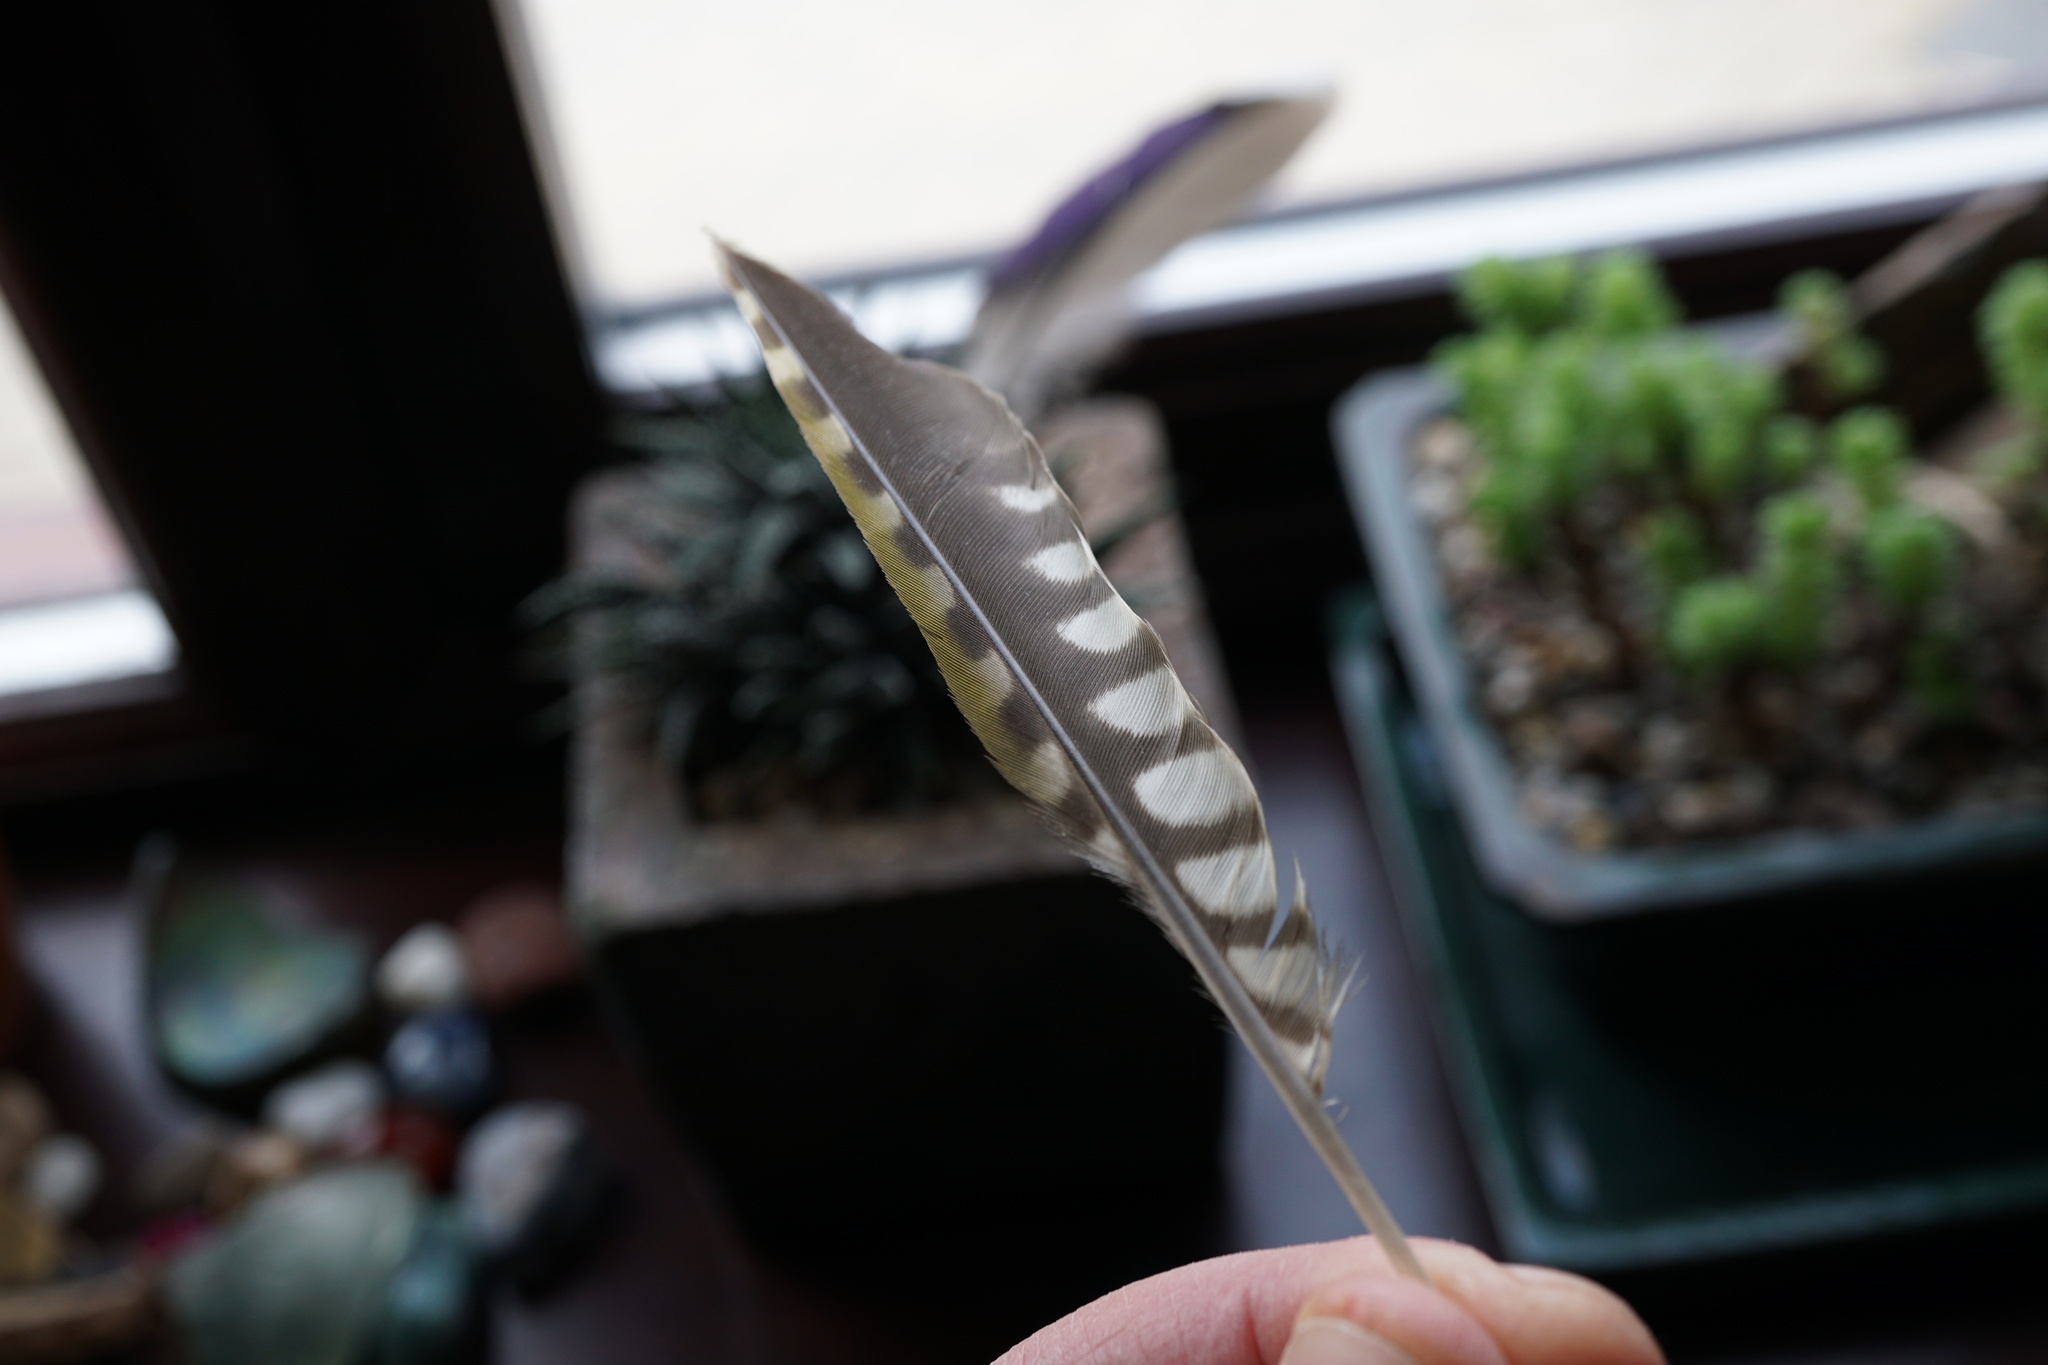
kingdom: Animalia
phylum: Chordata
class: Aves
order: Piciformes
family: Picidae
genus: Picus
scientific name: Picus viridis
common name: European green woodpecker
